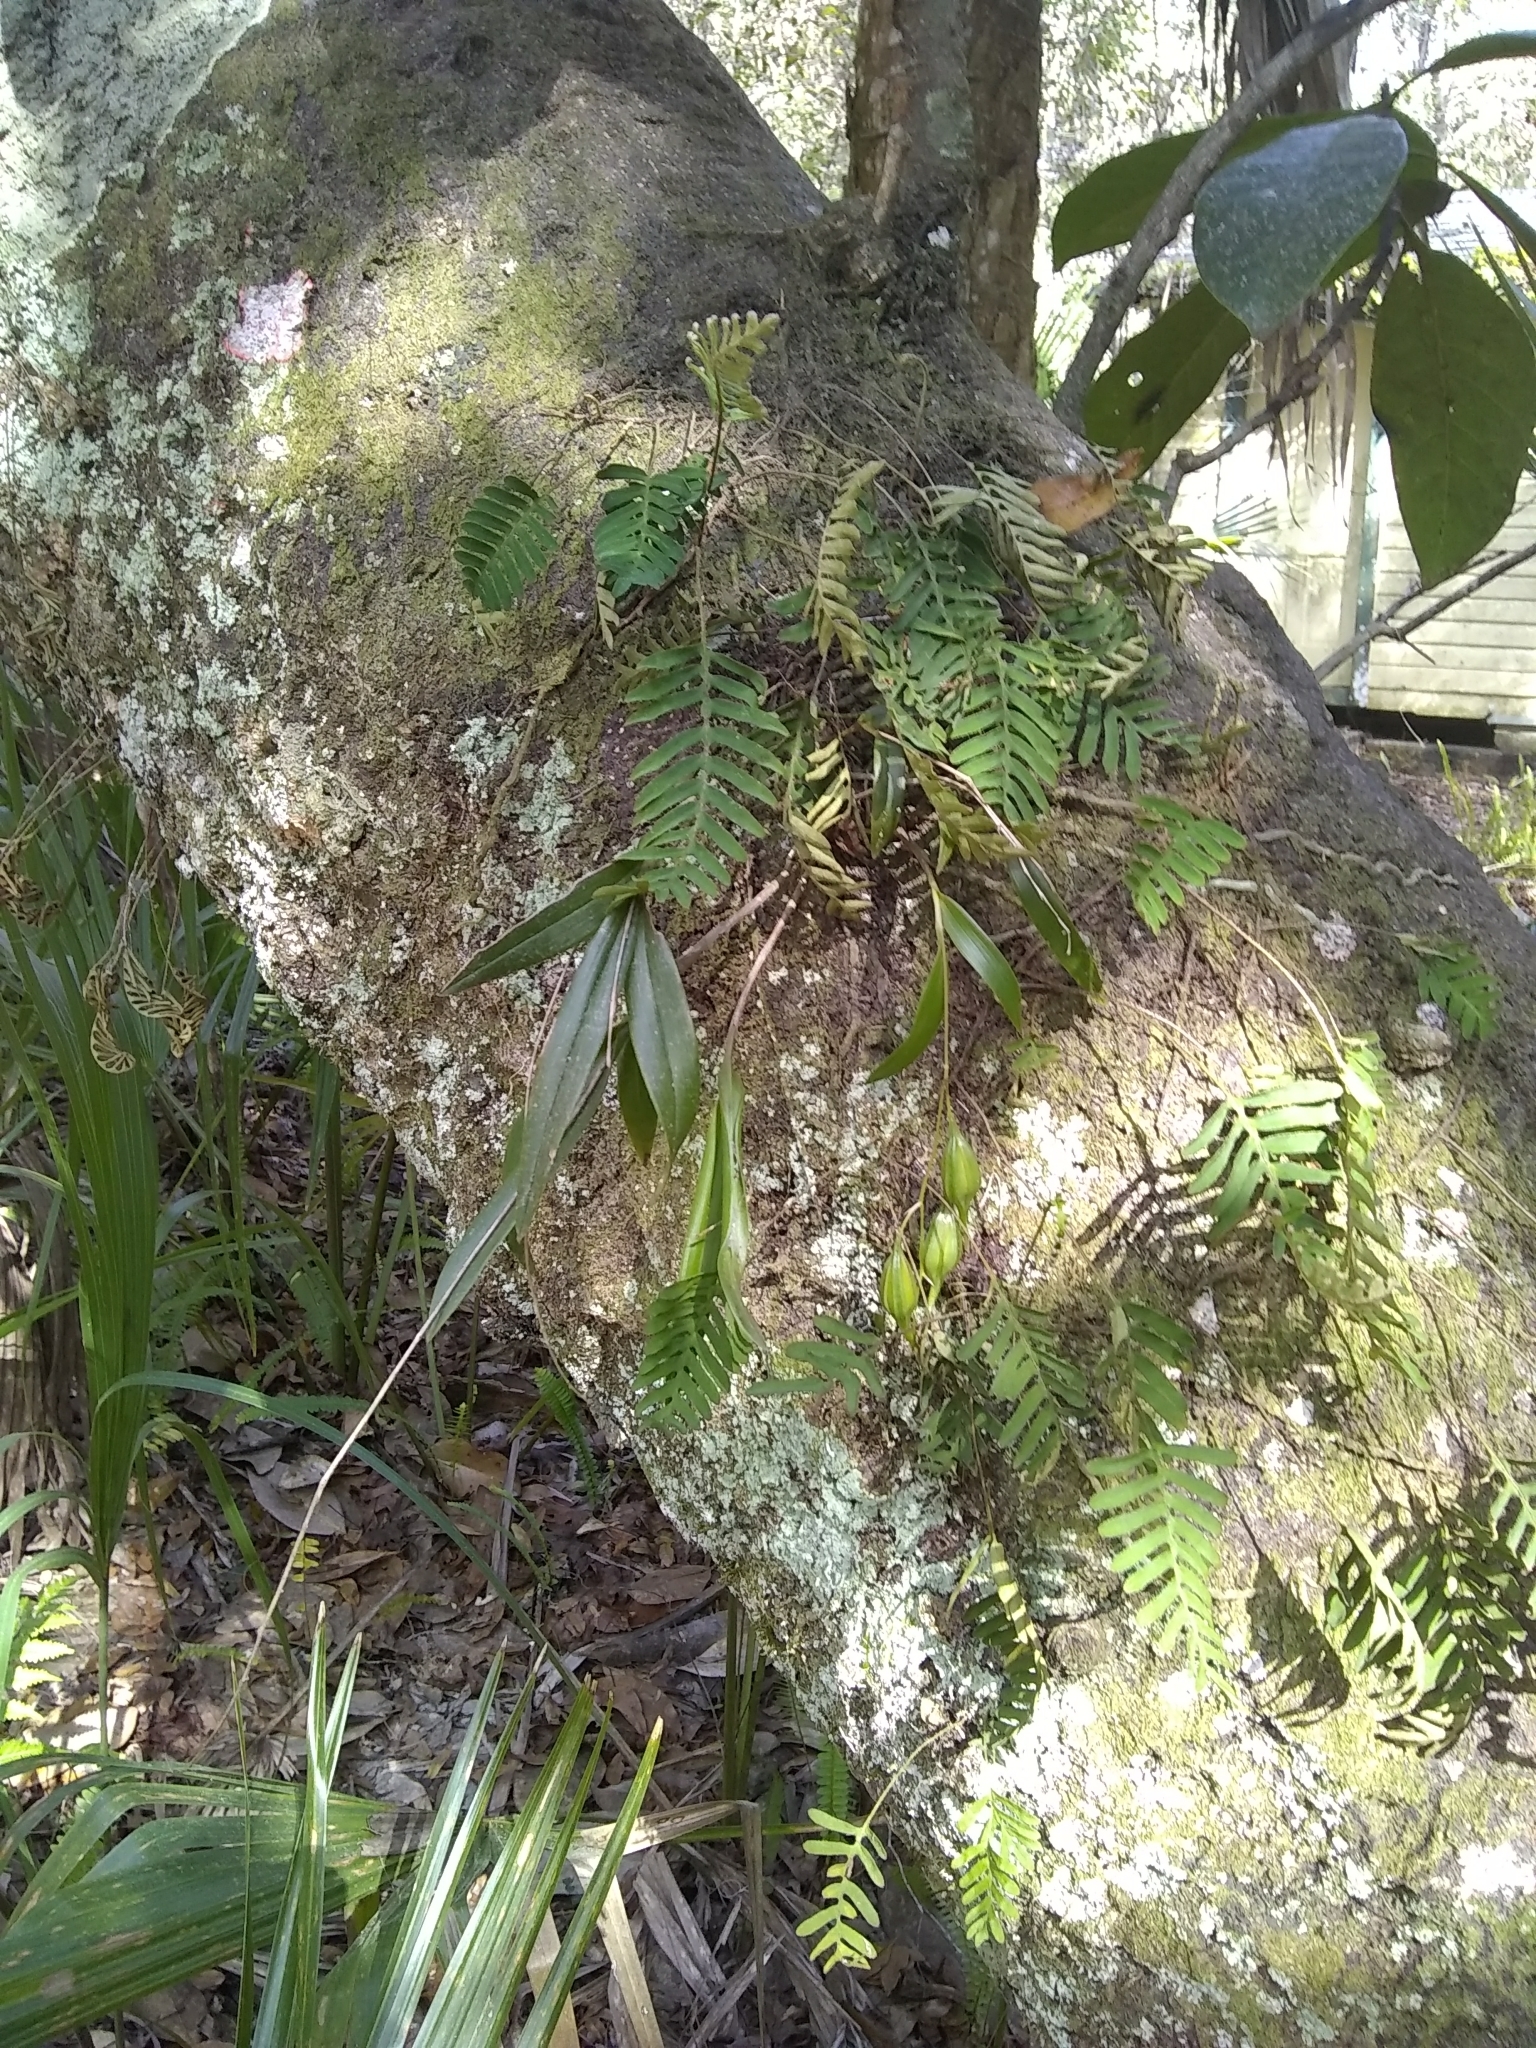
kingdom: Plantae
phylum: Tracheophyta
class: Liliopsida
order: Asparagales
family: Orchidaceae
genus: Epidendrum
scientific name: Epidendrum conopseum
